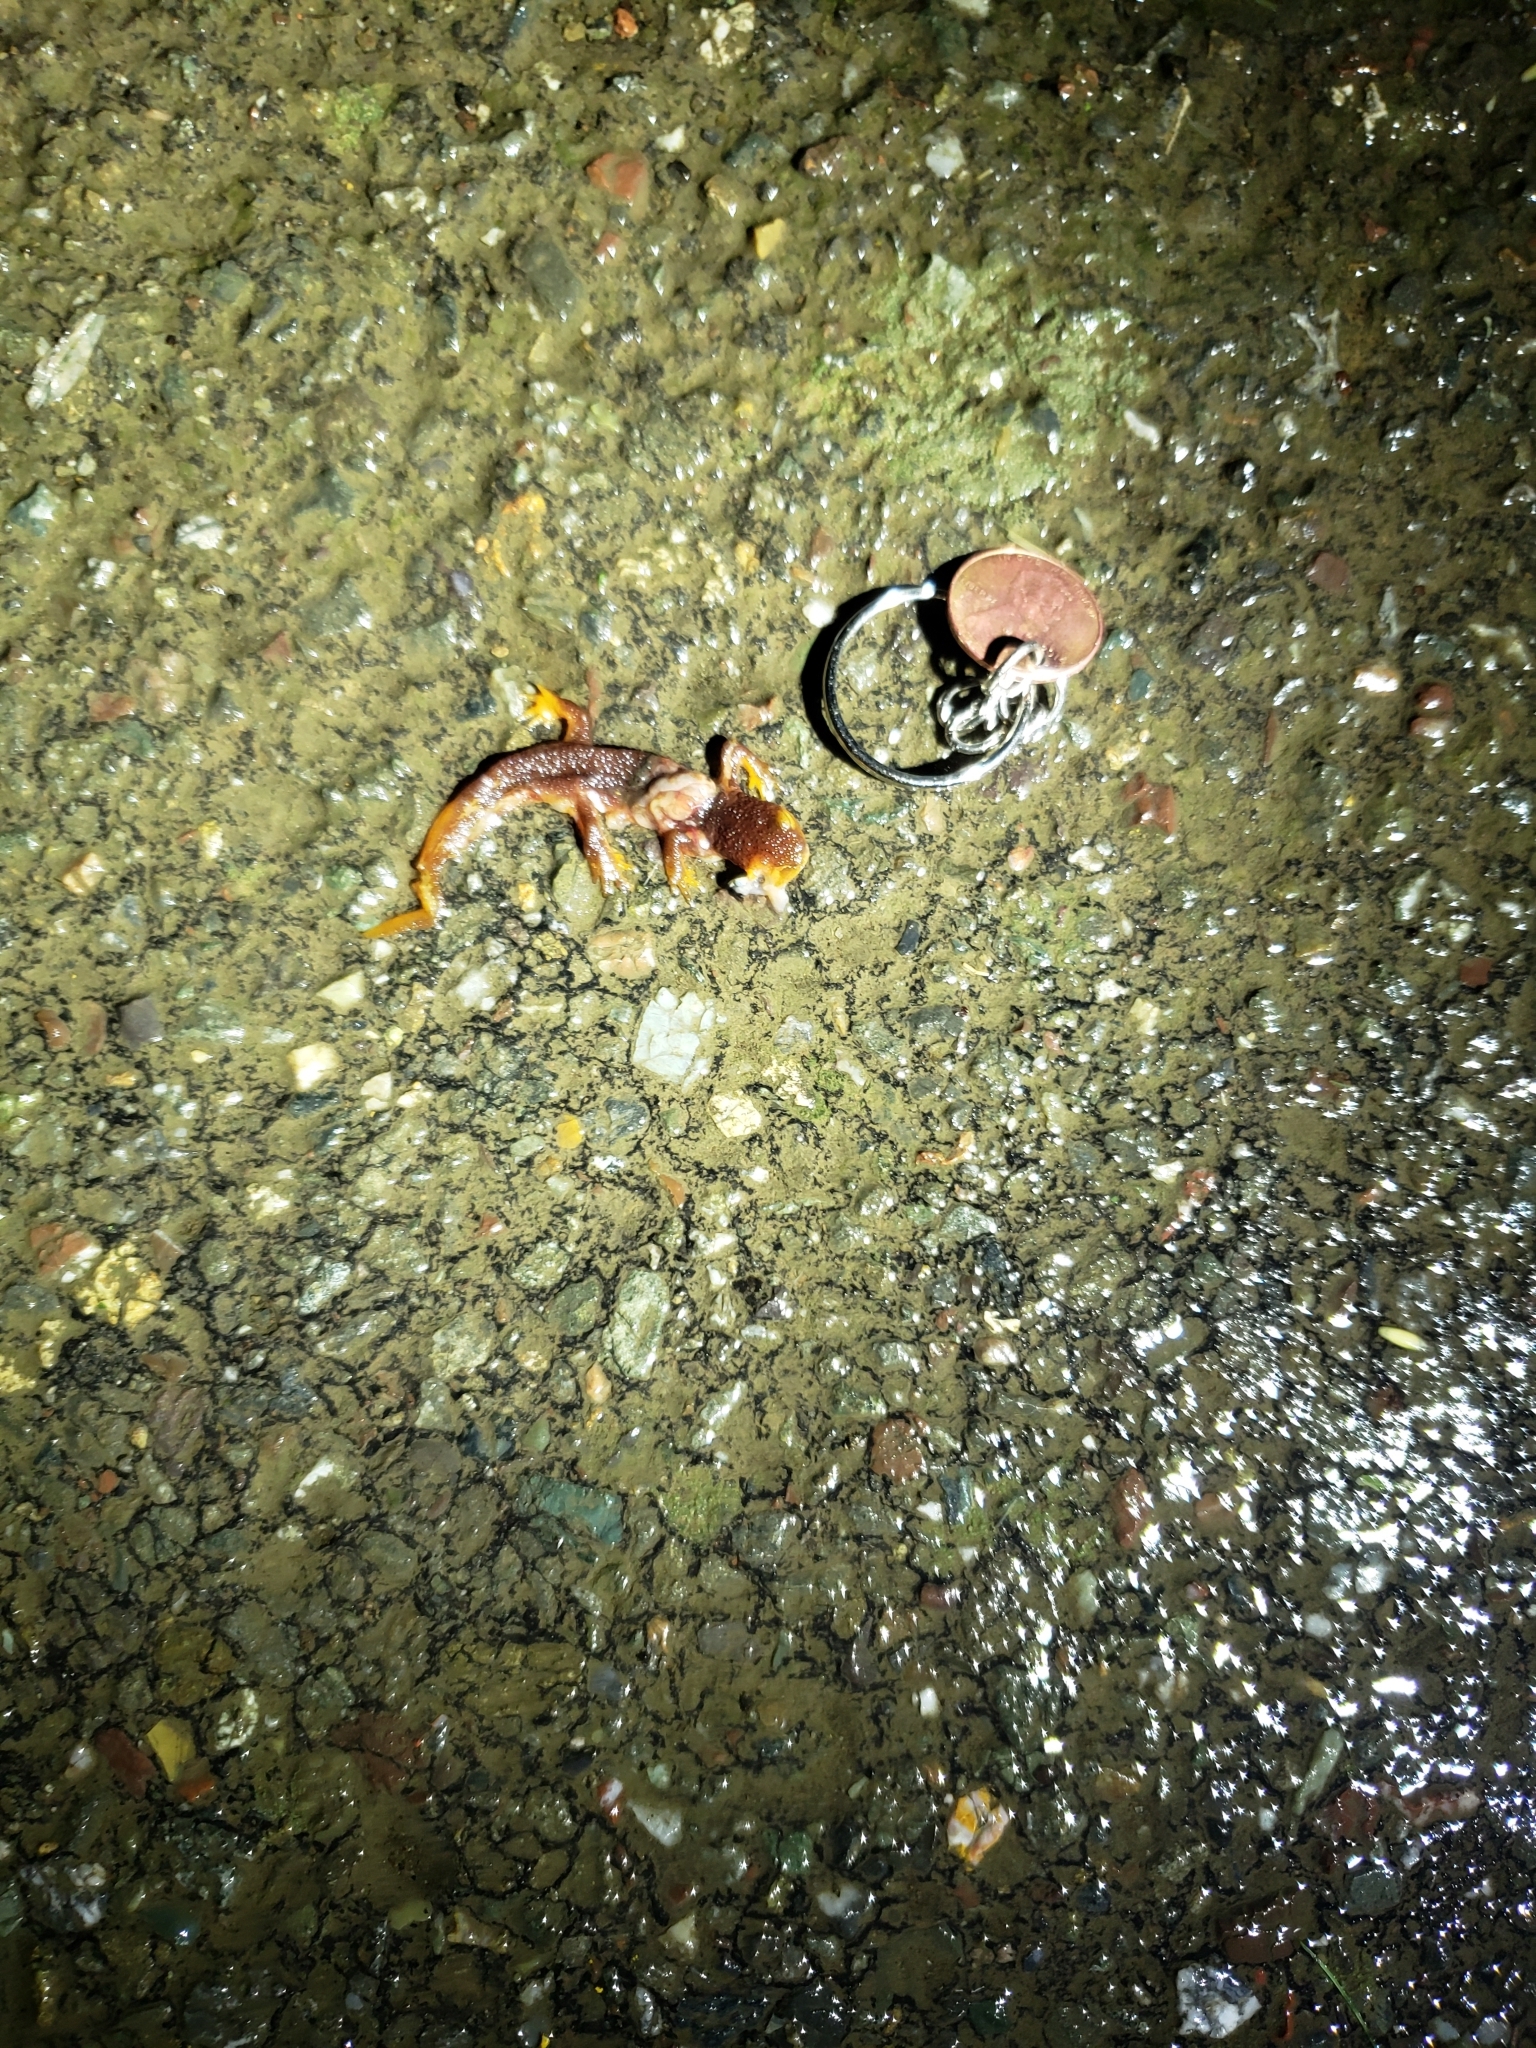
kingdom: Animalia
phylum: Chordata
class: Amphibia
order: Caudata
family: Salamandridae
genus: Taricha
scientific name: Taricha torosa
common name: California newt
